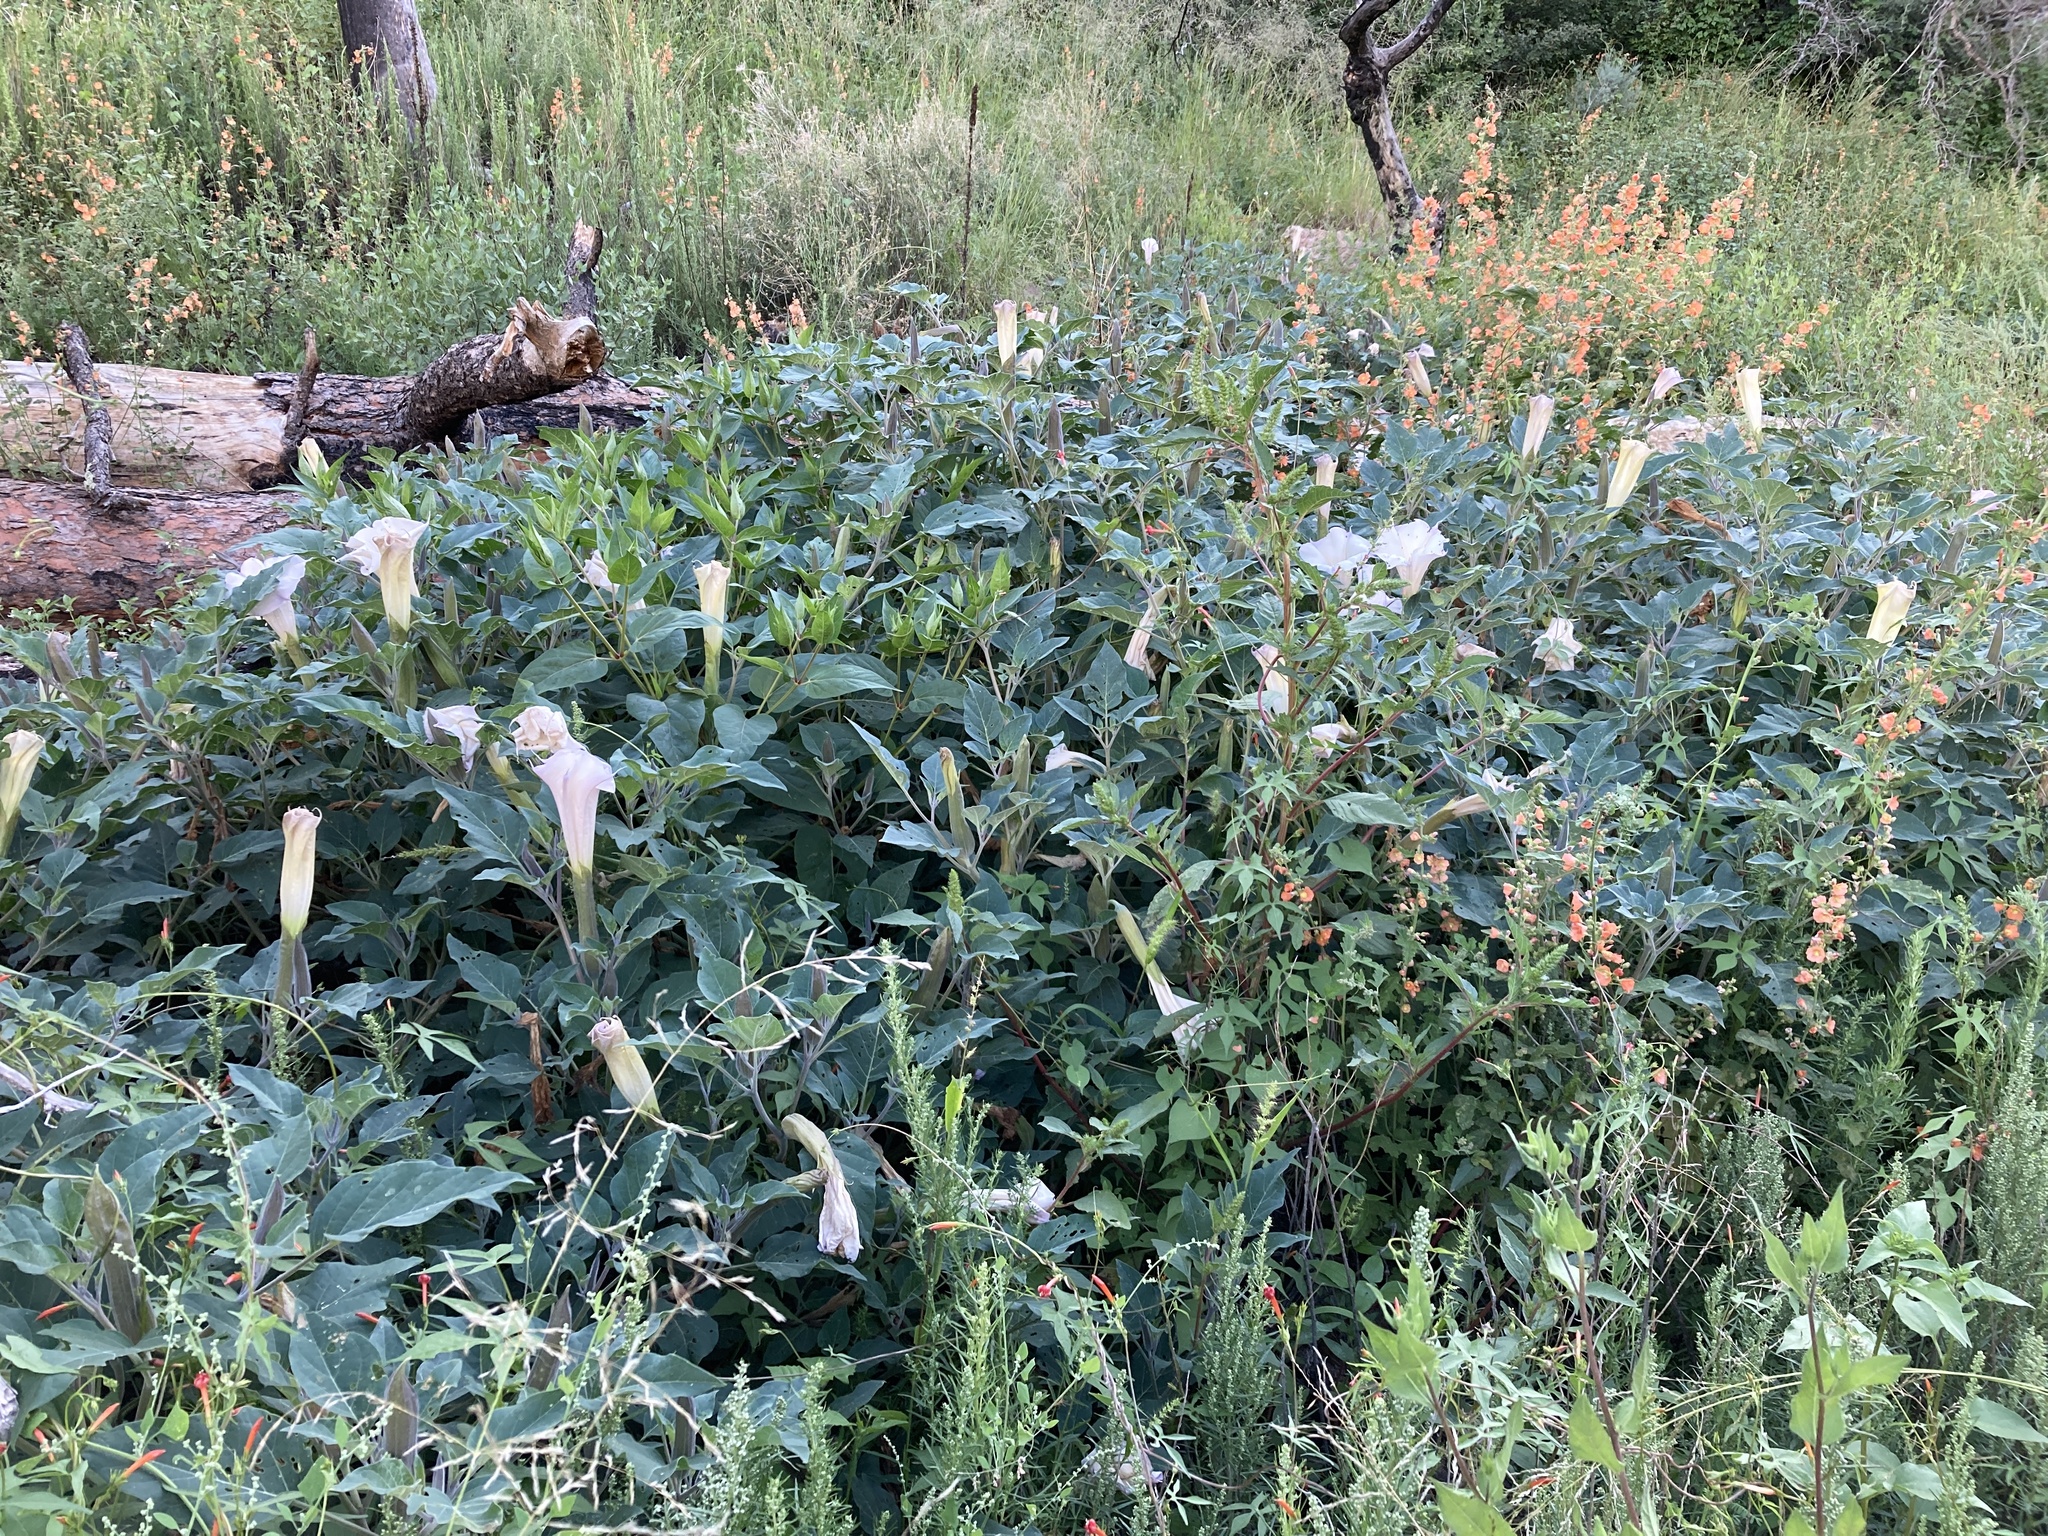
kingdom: Plantae
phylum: Tracheophyta
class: Magnoliopsida
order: Solanales
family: Solanaceae
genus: Datura
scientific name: Datura wrightii
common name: Sacred thorn-apple
